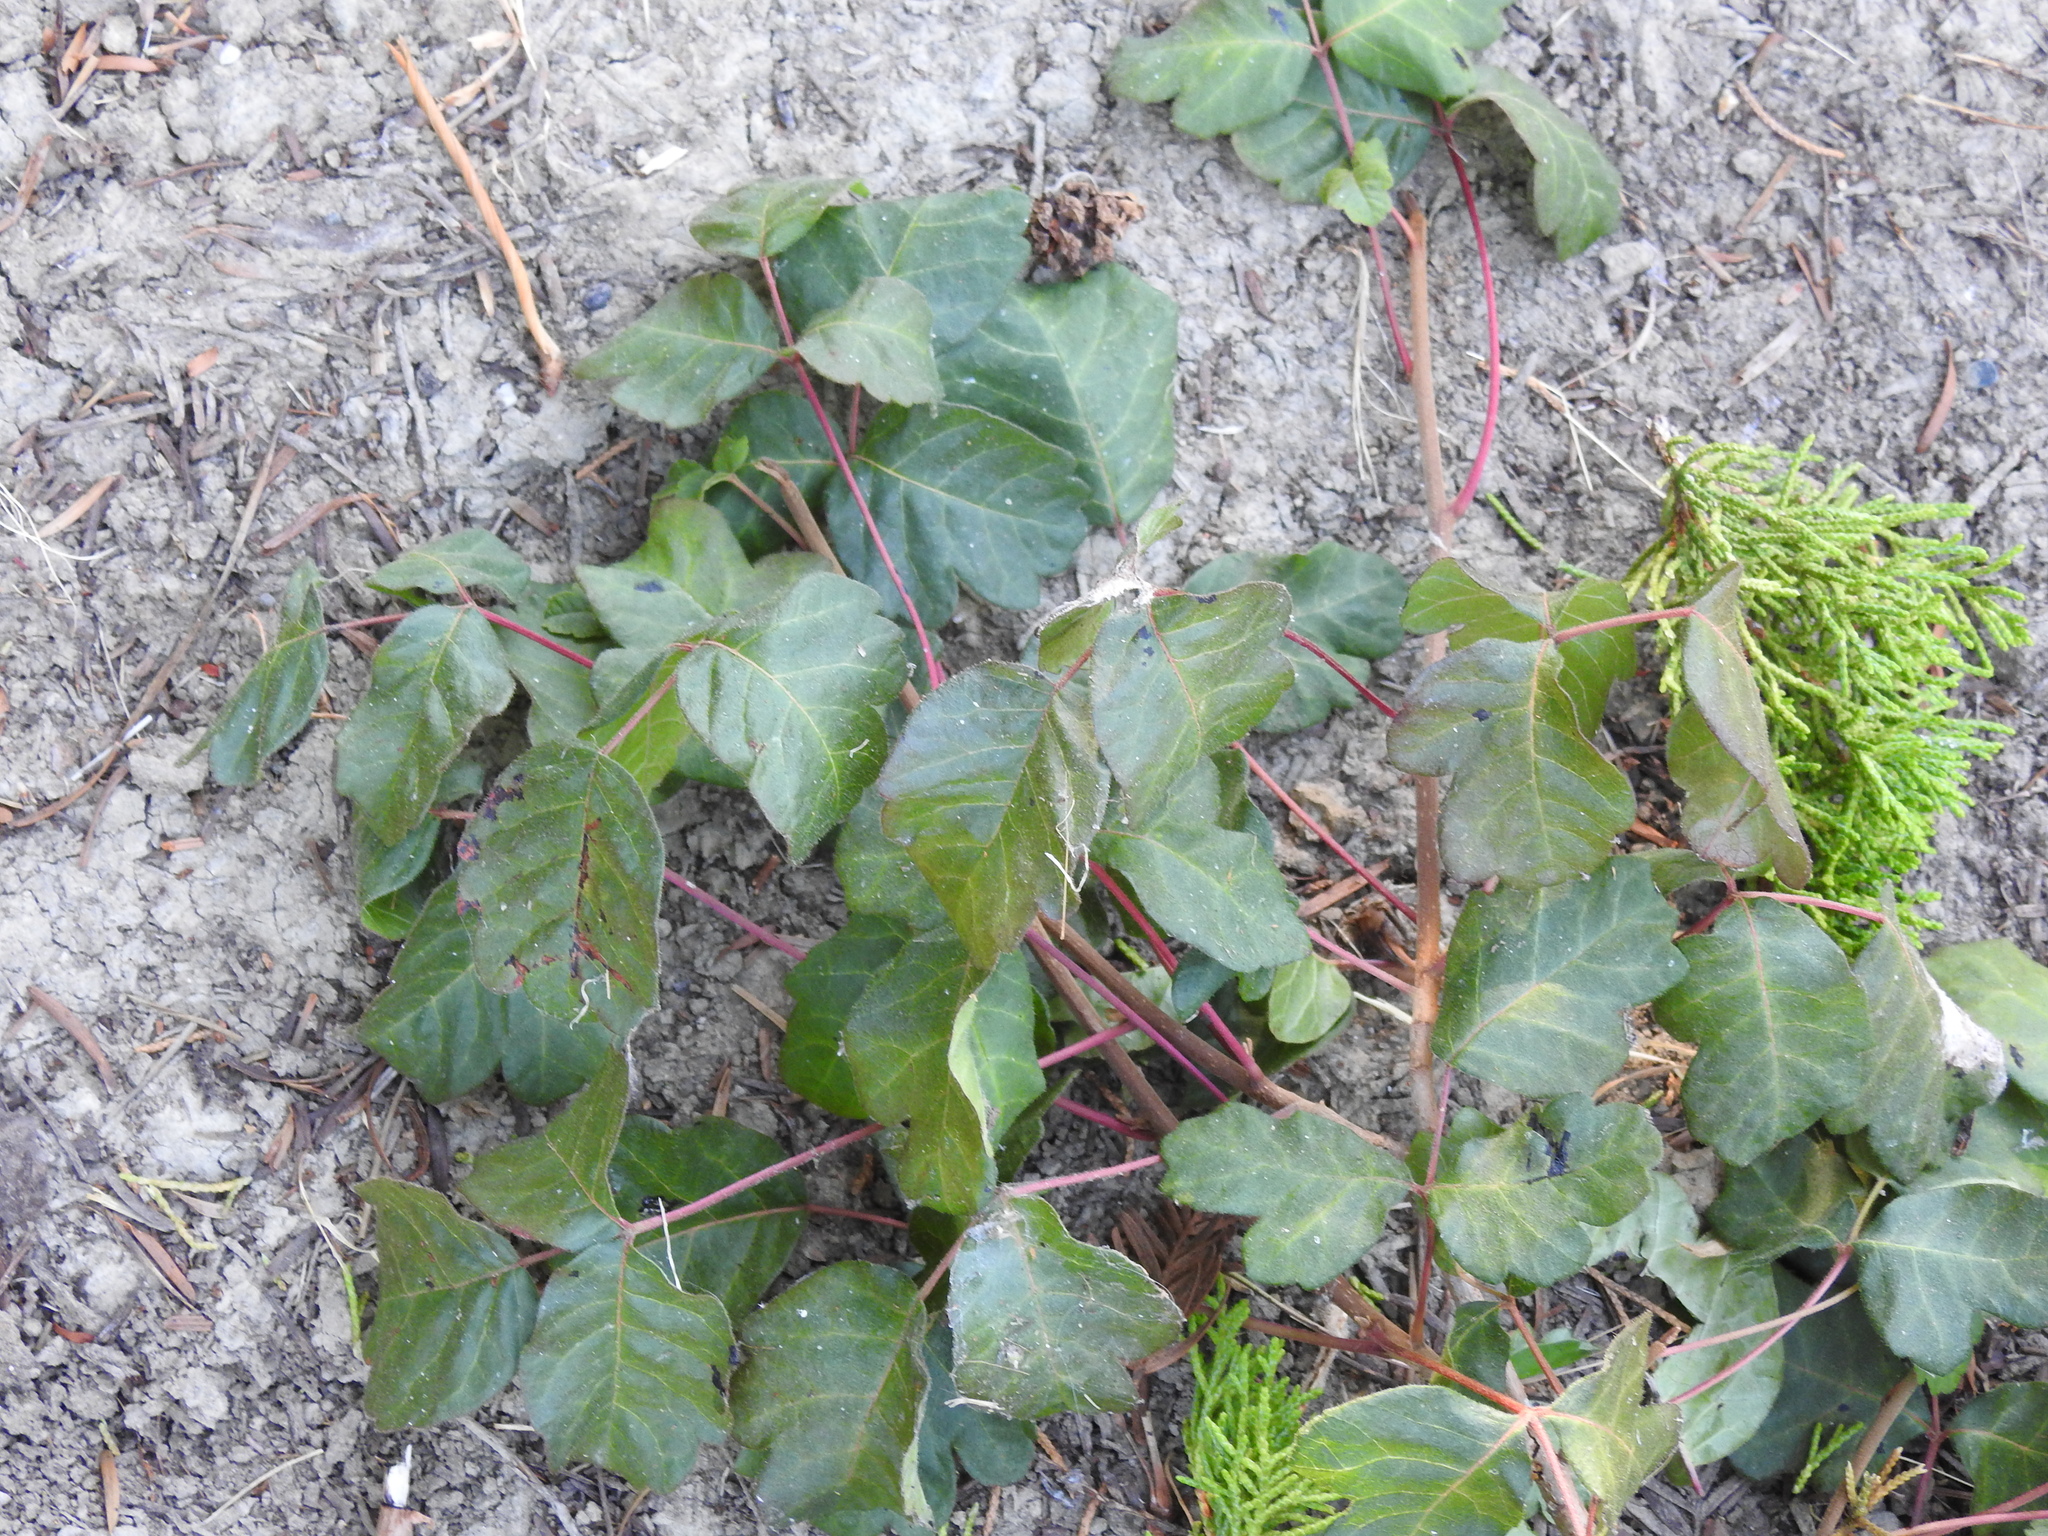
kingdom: Plantae
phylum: Tracheophyta
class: Magnoliopsida
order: Sapindales
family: Anacardiaceae
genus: Toxicodendron
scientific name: Toxicodendron diversilobum
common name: Pacific poison-oak
